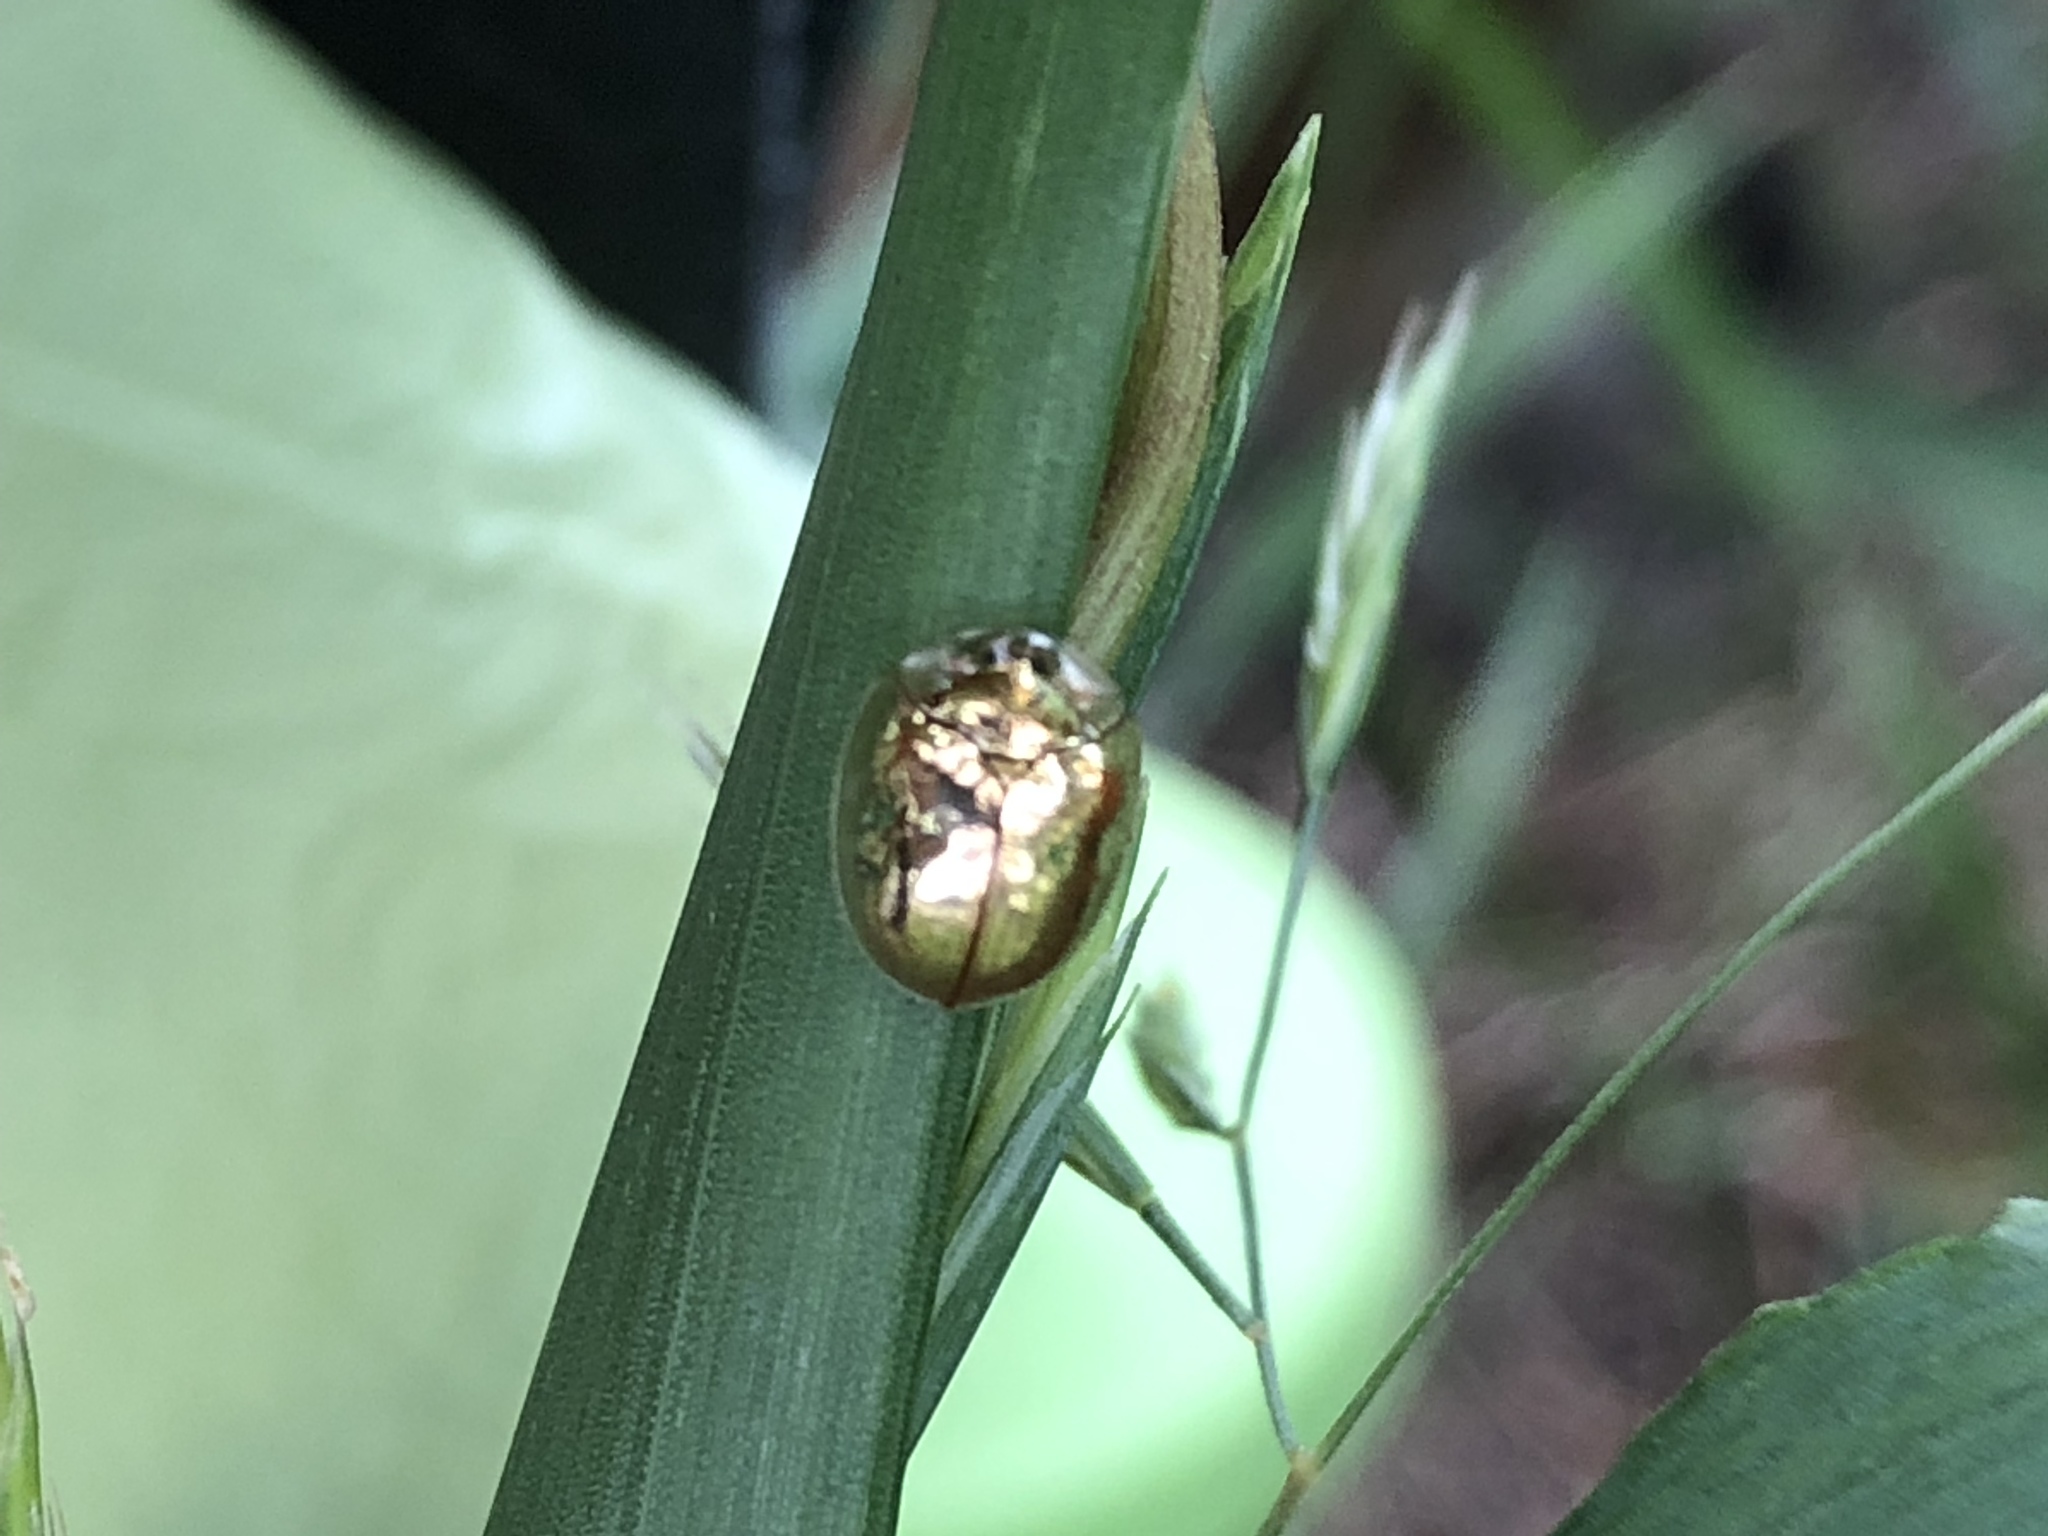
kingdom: Animalia
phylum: Arthropoda
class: Insecta
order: Coleoptera
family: Chrysomelidae
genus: Charidotella
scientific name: Charidotella sexpunctata
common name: Golden tortoise beetle
